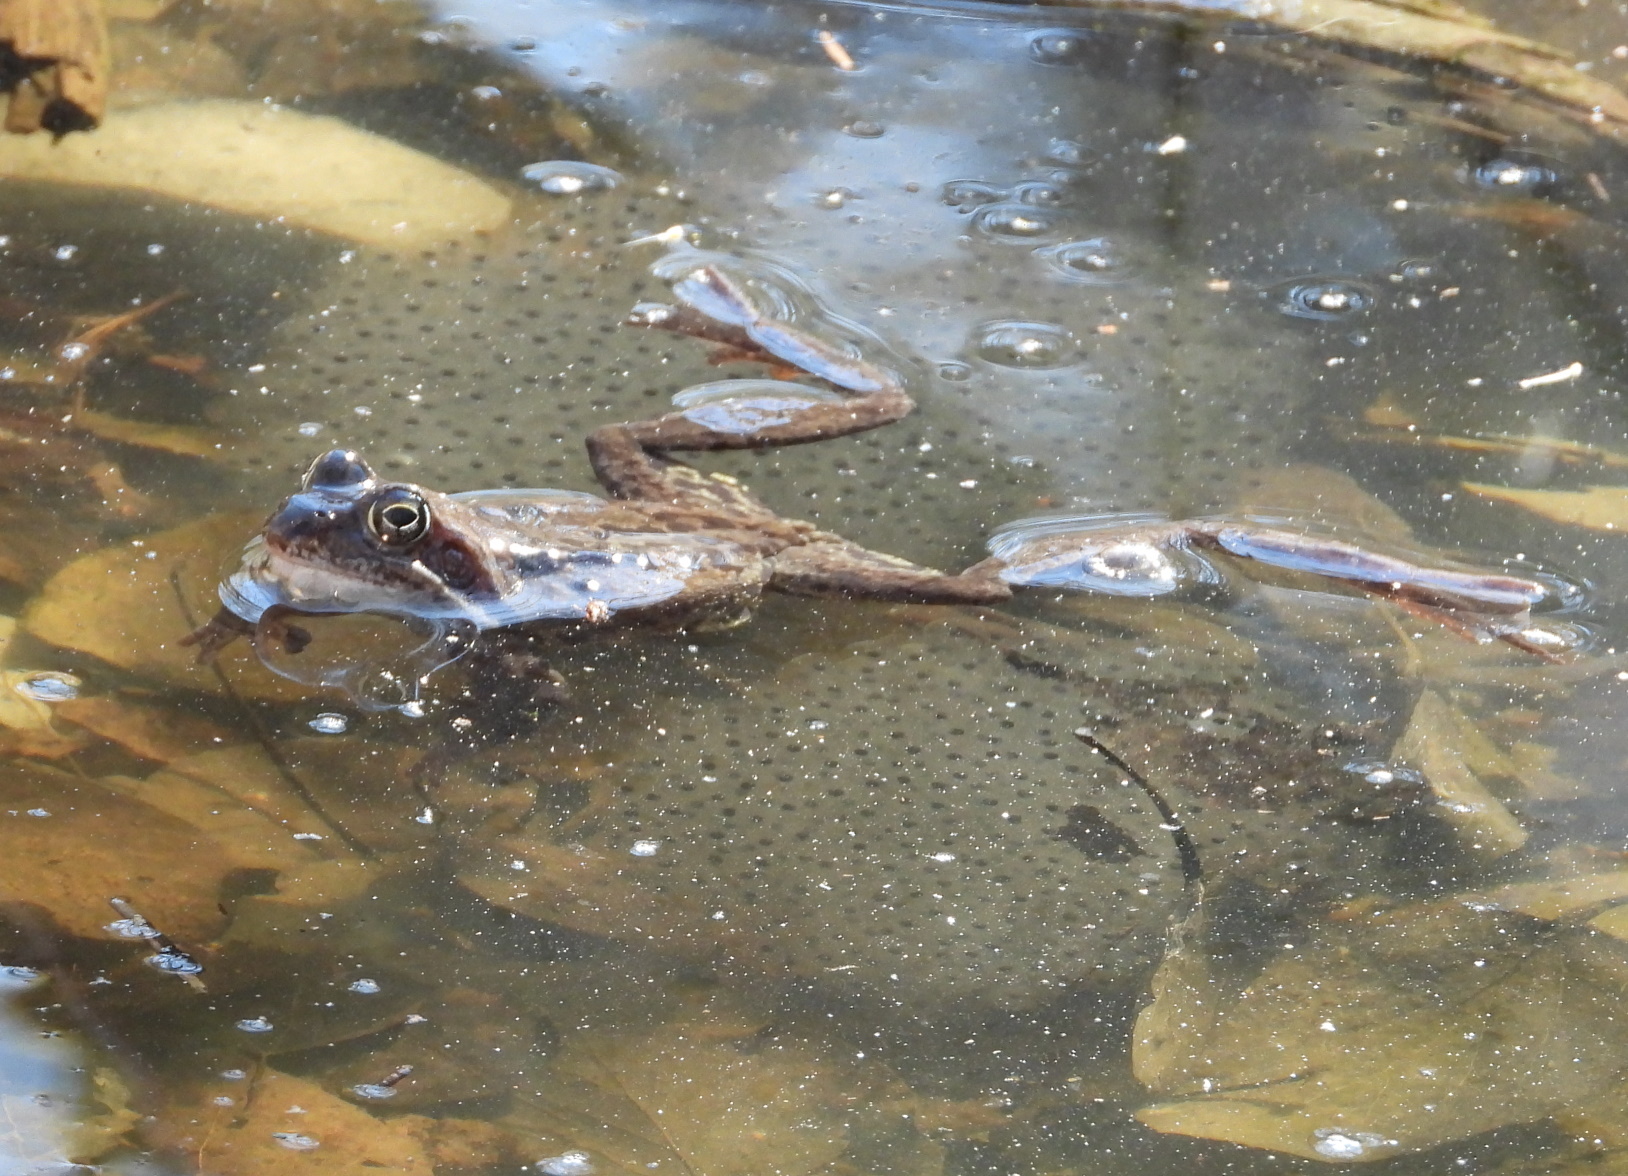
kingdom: Animalia
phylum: Chordata
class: Amphibia
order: Anura
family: Ranidae
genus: Rana
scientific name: Rana temporaria
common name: Common frog
